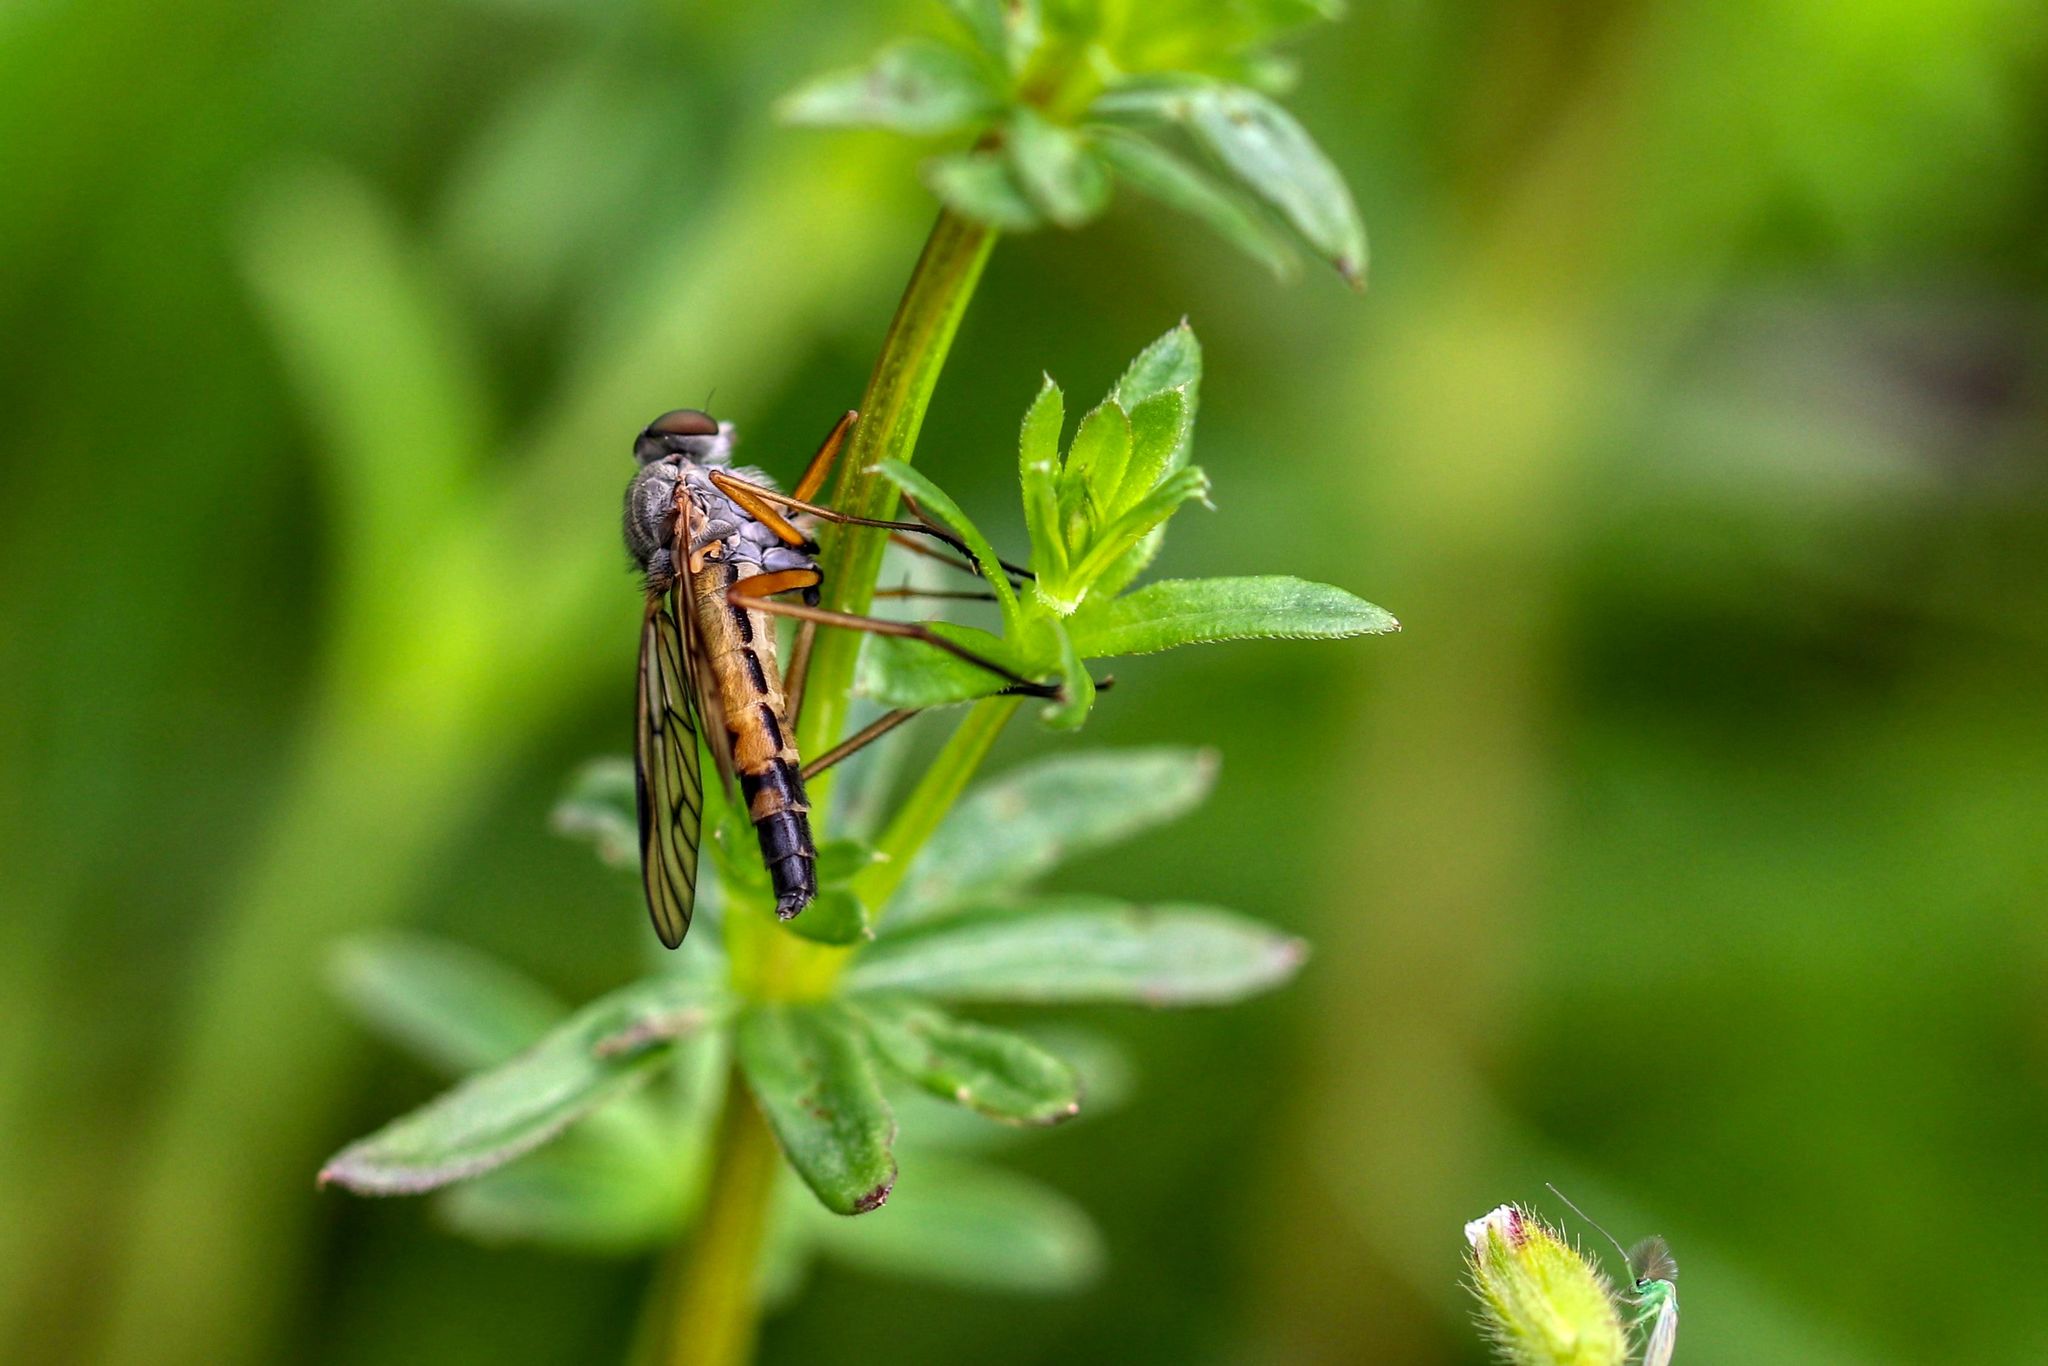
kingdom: Animalia
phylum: Arthropoda
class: Insecta
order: Diptera
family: Rhagionidae
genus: Rhagio
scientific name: Rhagio vitripennis
